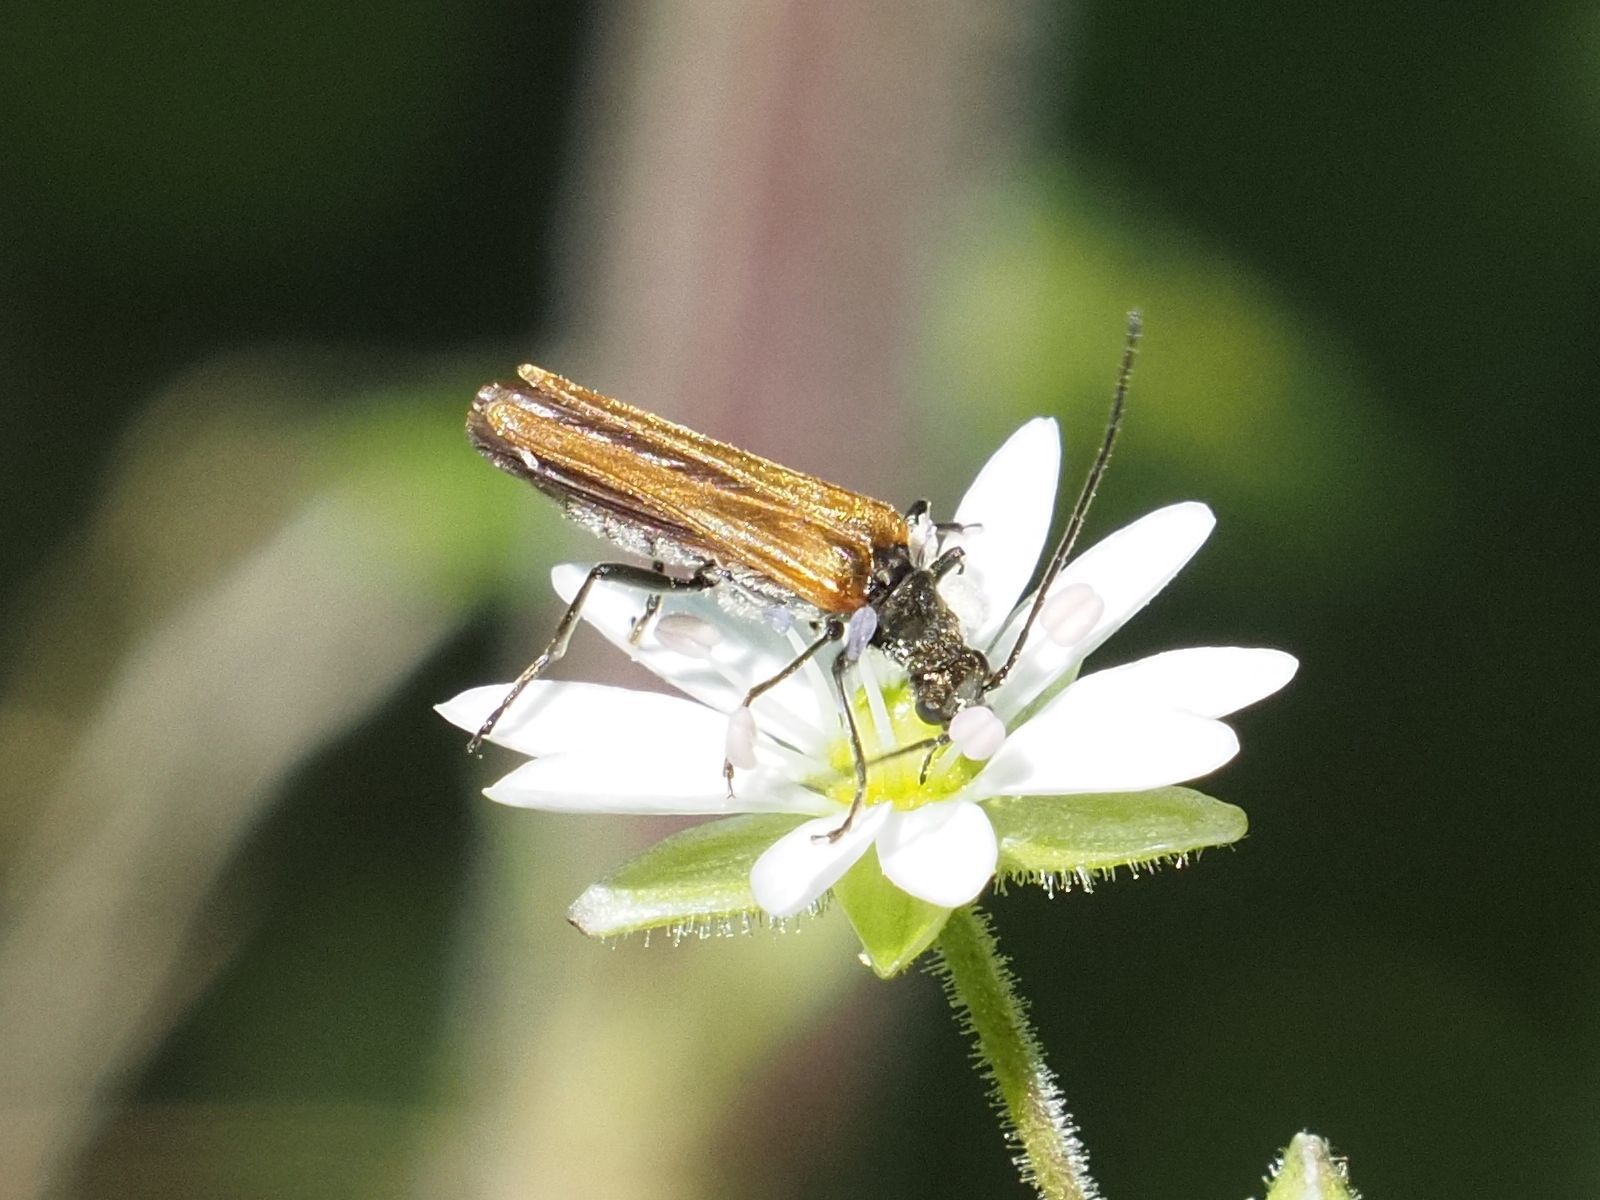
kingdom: Animalia
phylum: Arthropoda
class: Insecta
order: Coleoptera
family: Oedemeridae
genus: Oedemera
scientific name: Oedemera femorata
